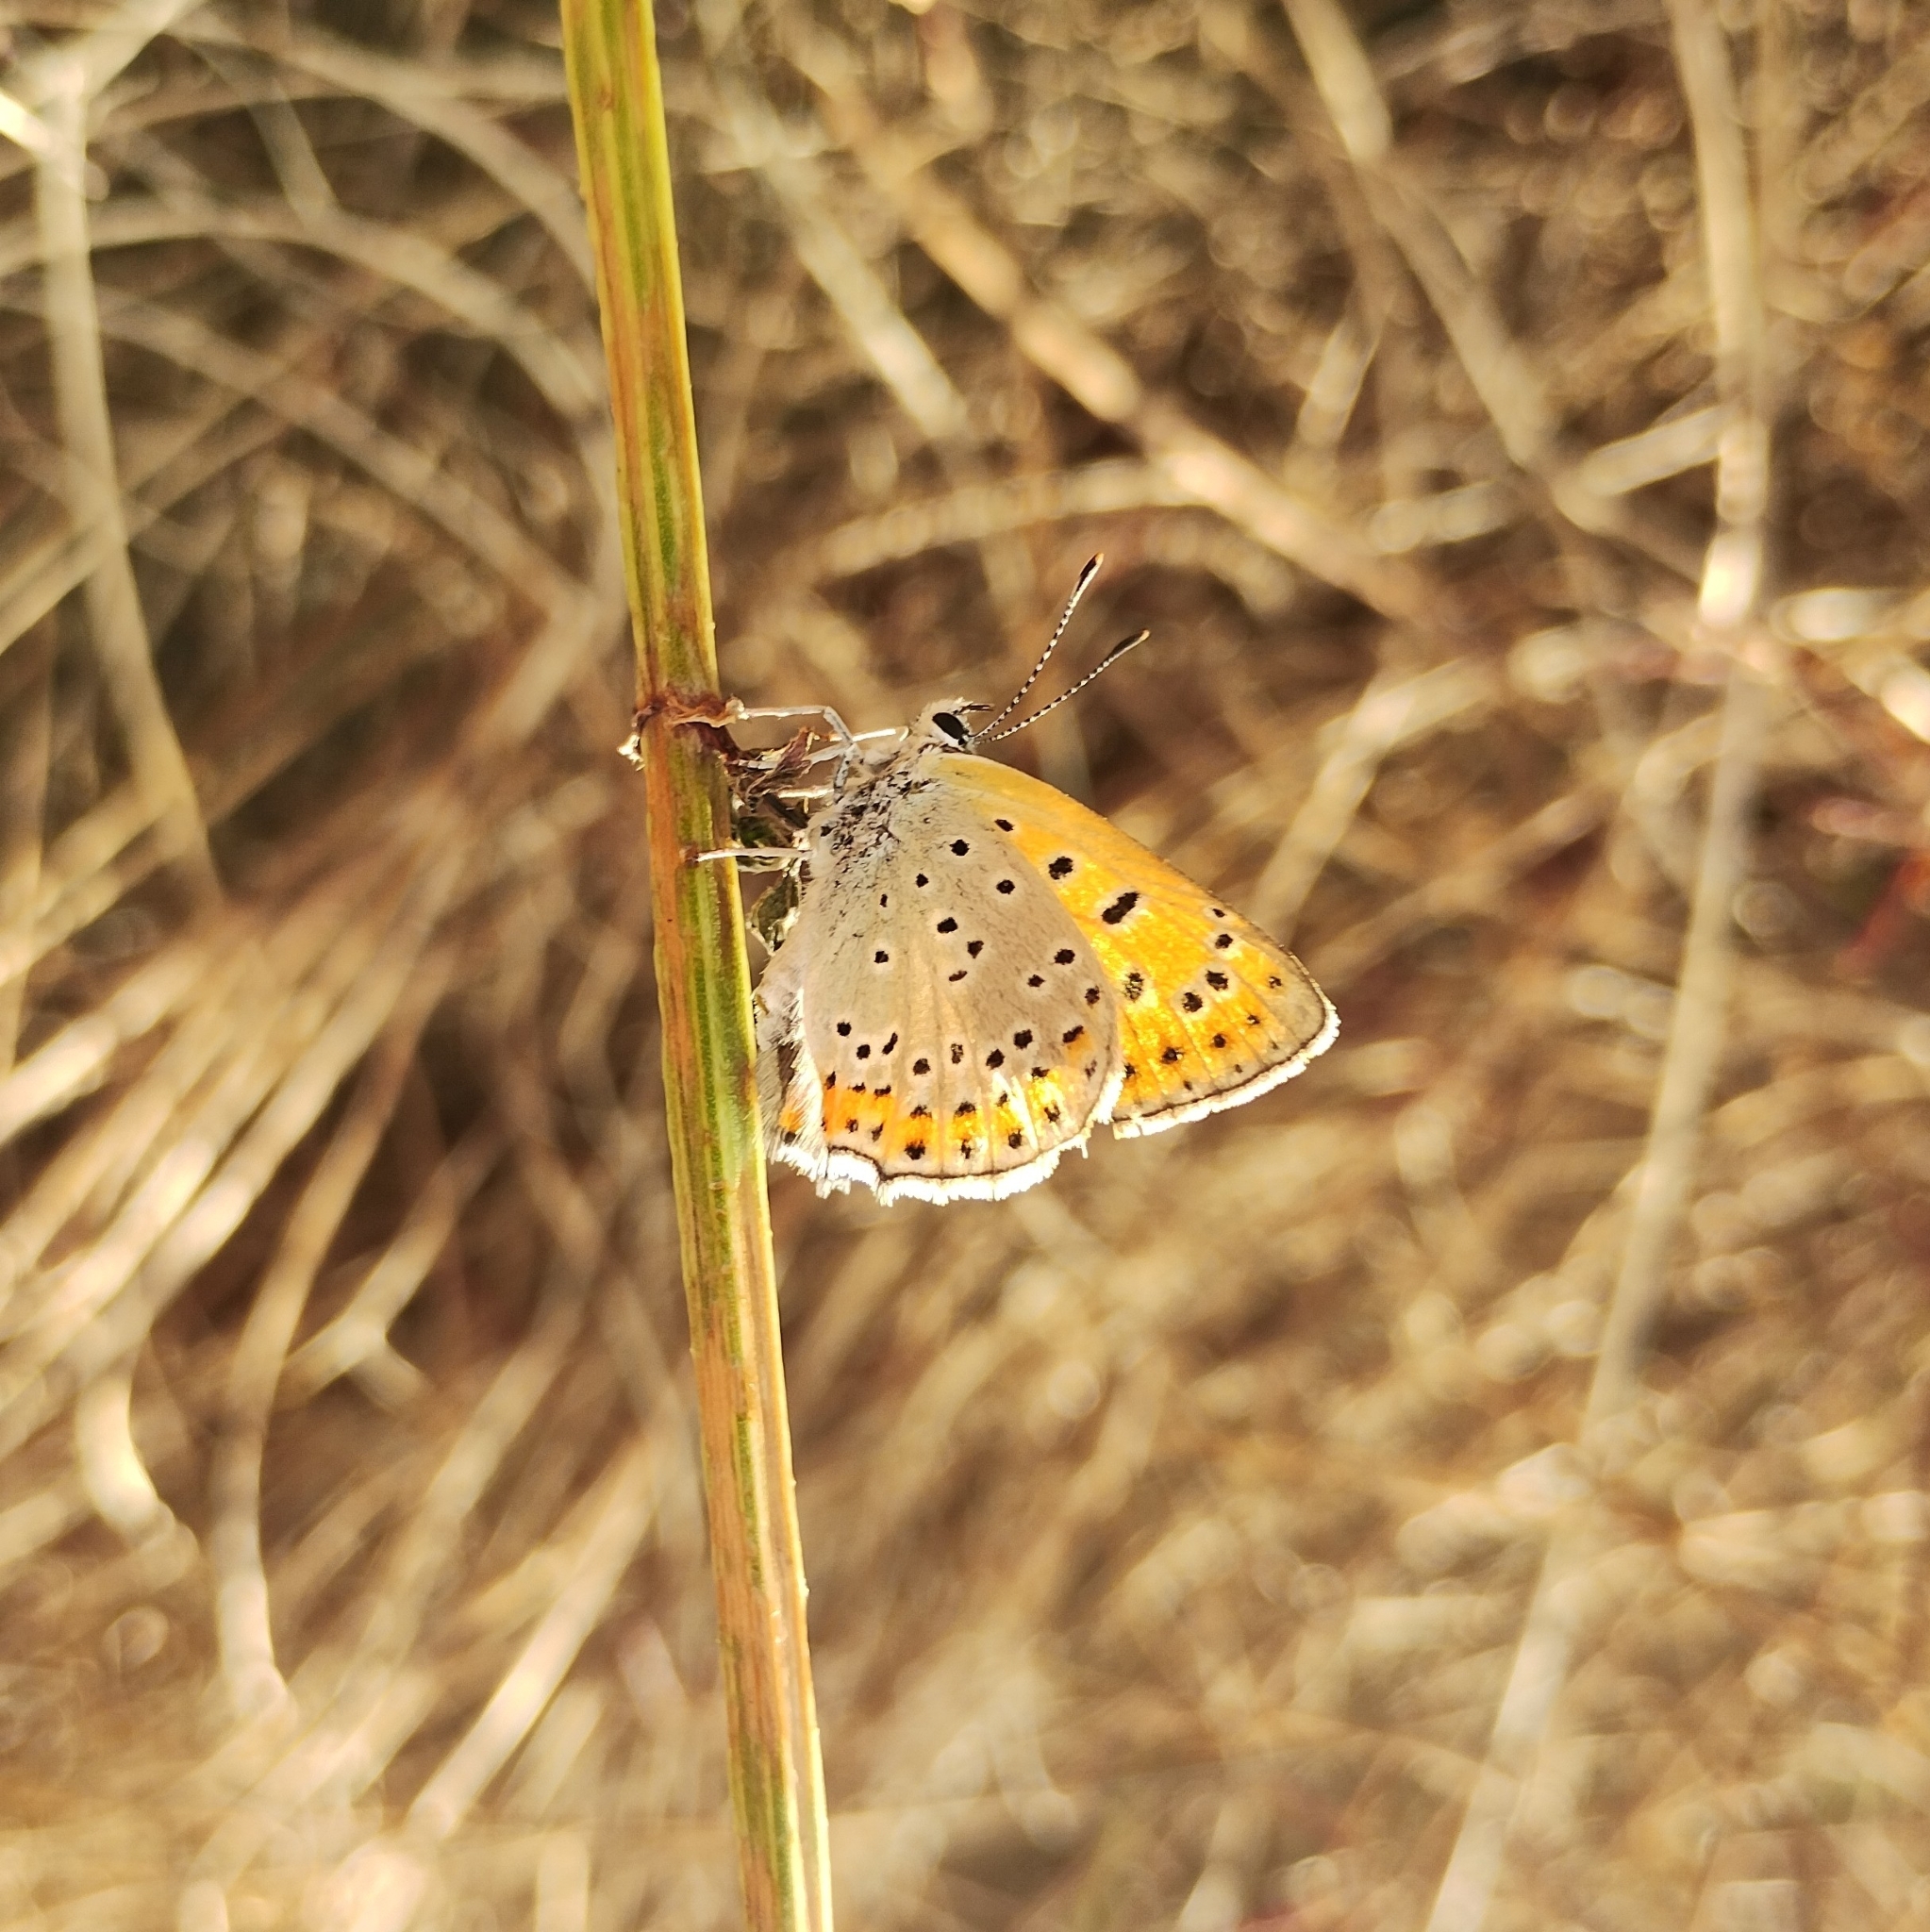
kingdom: Animalia
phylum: Arthropoda
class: Insecta
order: Lepidoptera
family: Lycaenidae
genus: Thersamonia
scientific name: Thersamonia thersamon
